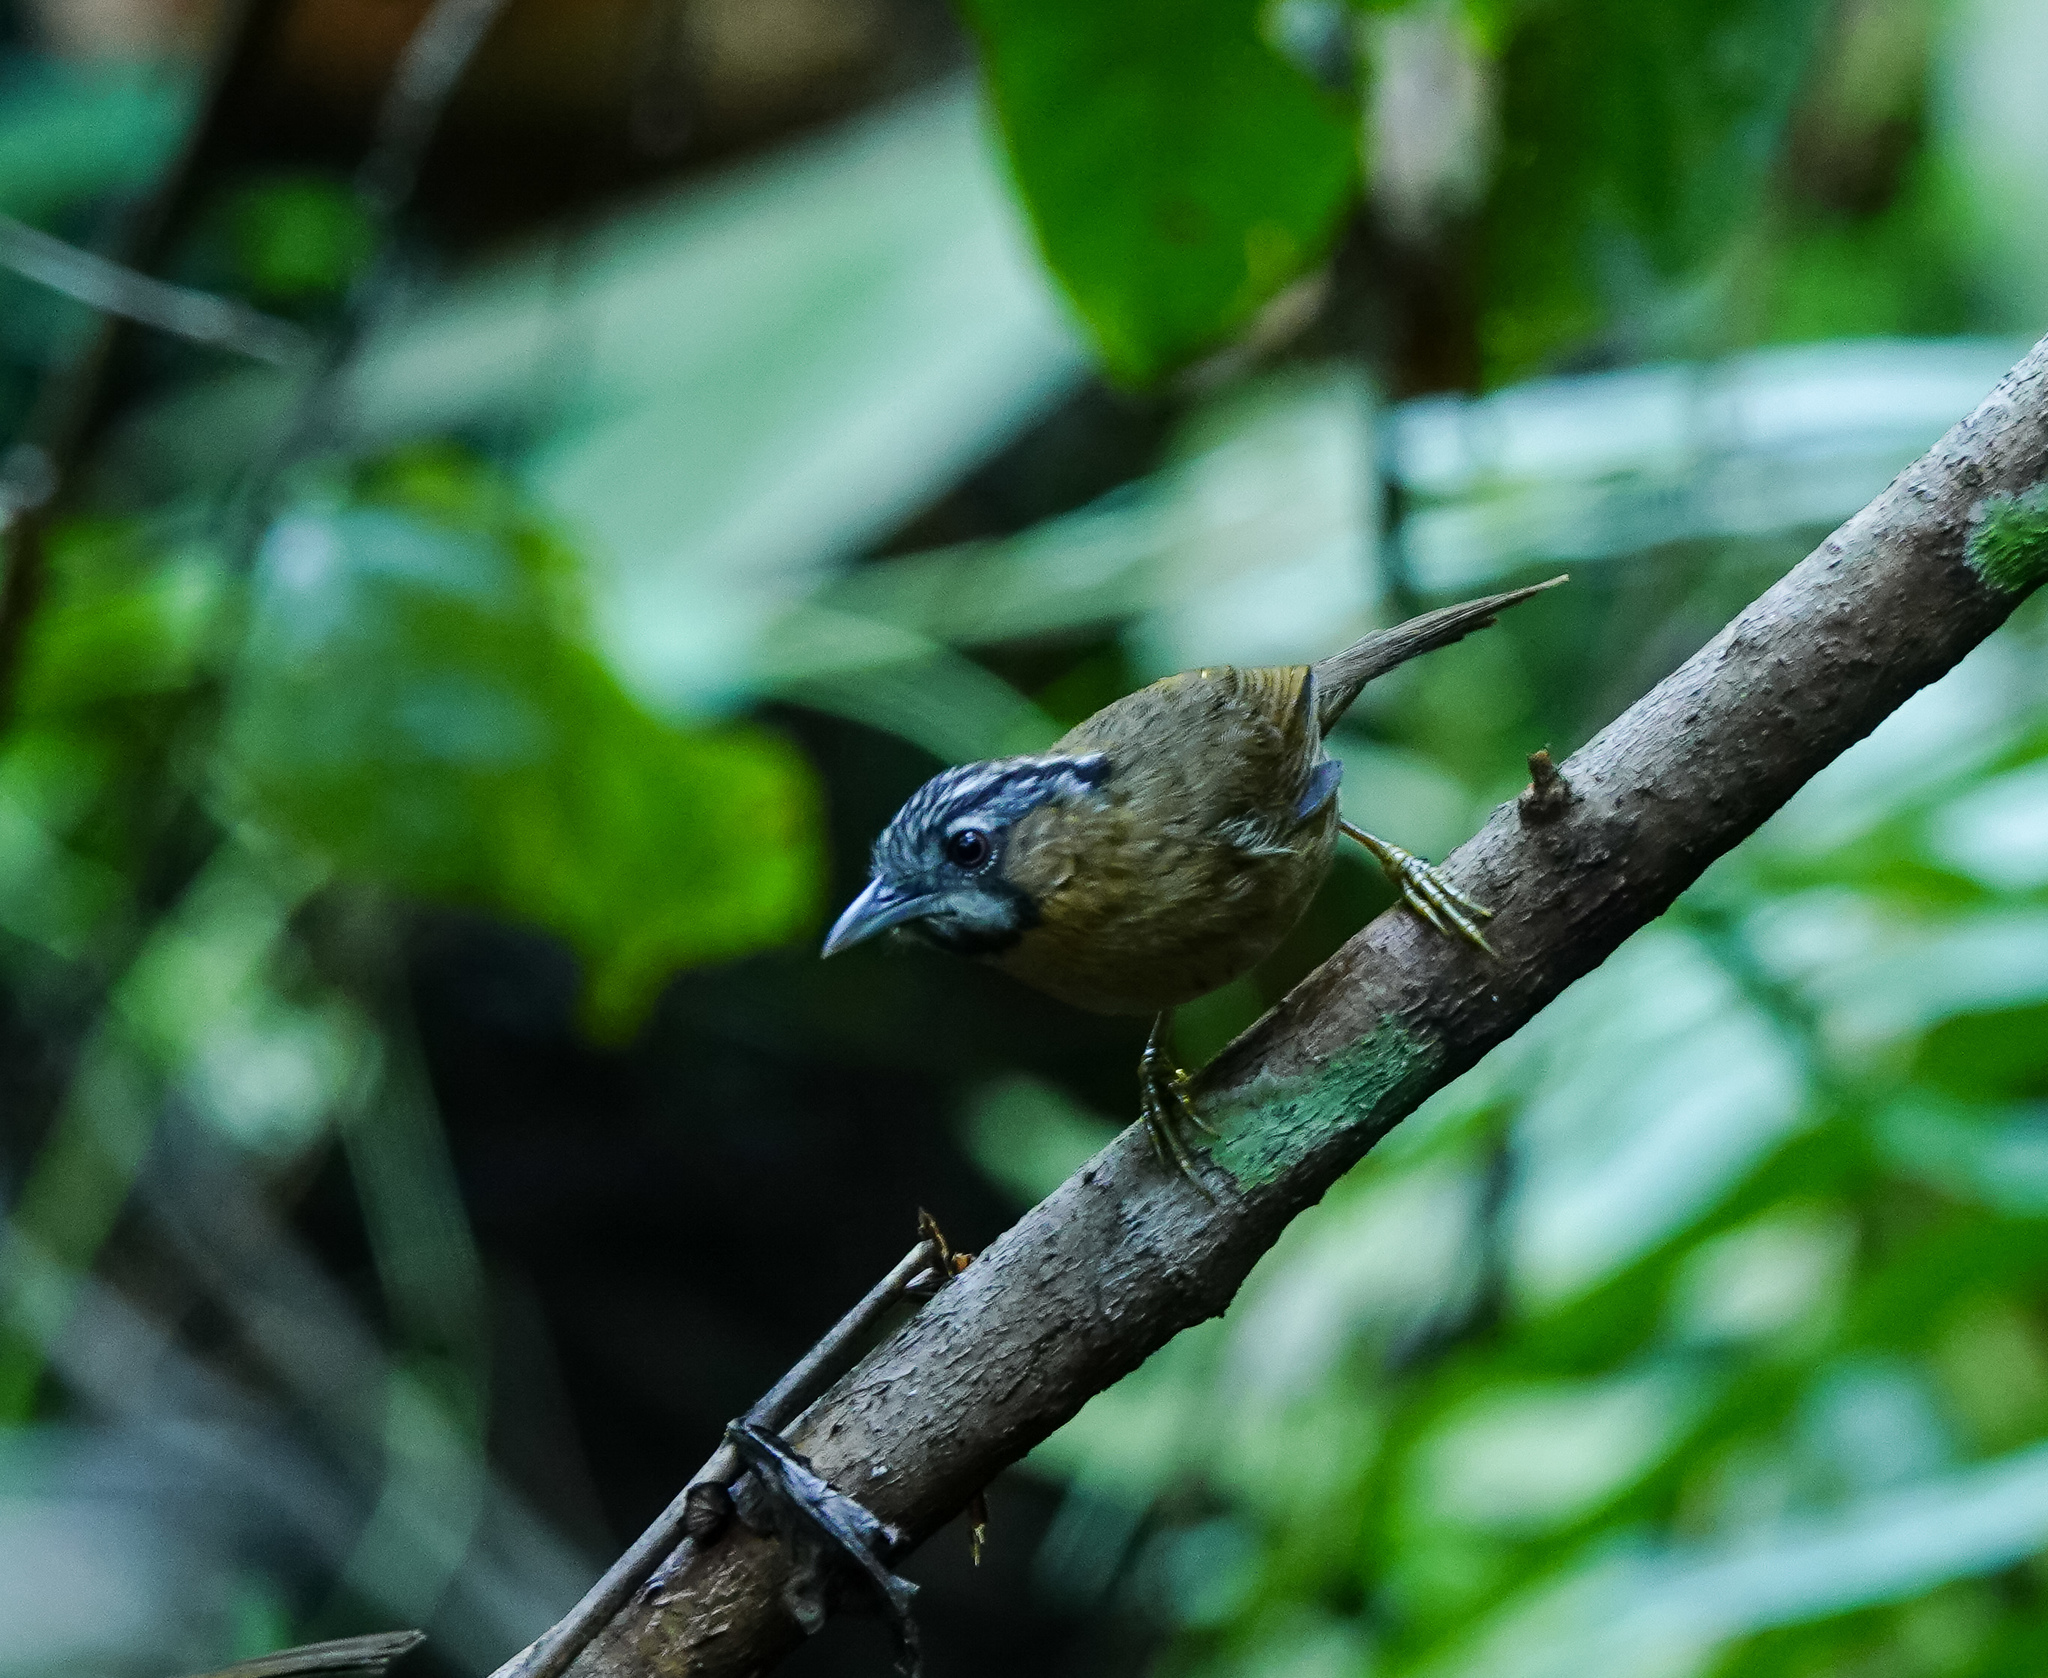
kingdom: Animalia
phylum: Chordata
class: Aves
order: Passeriformes
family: Timaliidae
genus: Stachyris
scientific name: Stachyris nigriceps
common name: Grey-throated babbler
